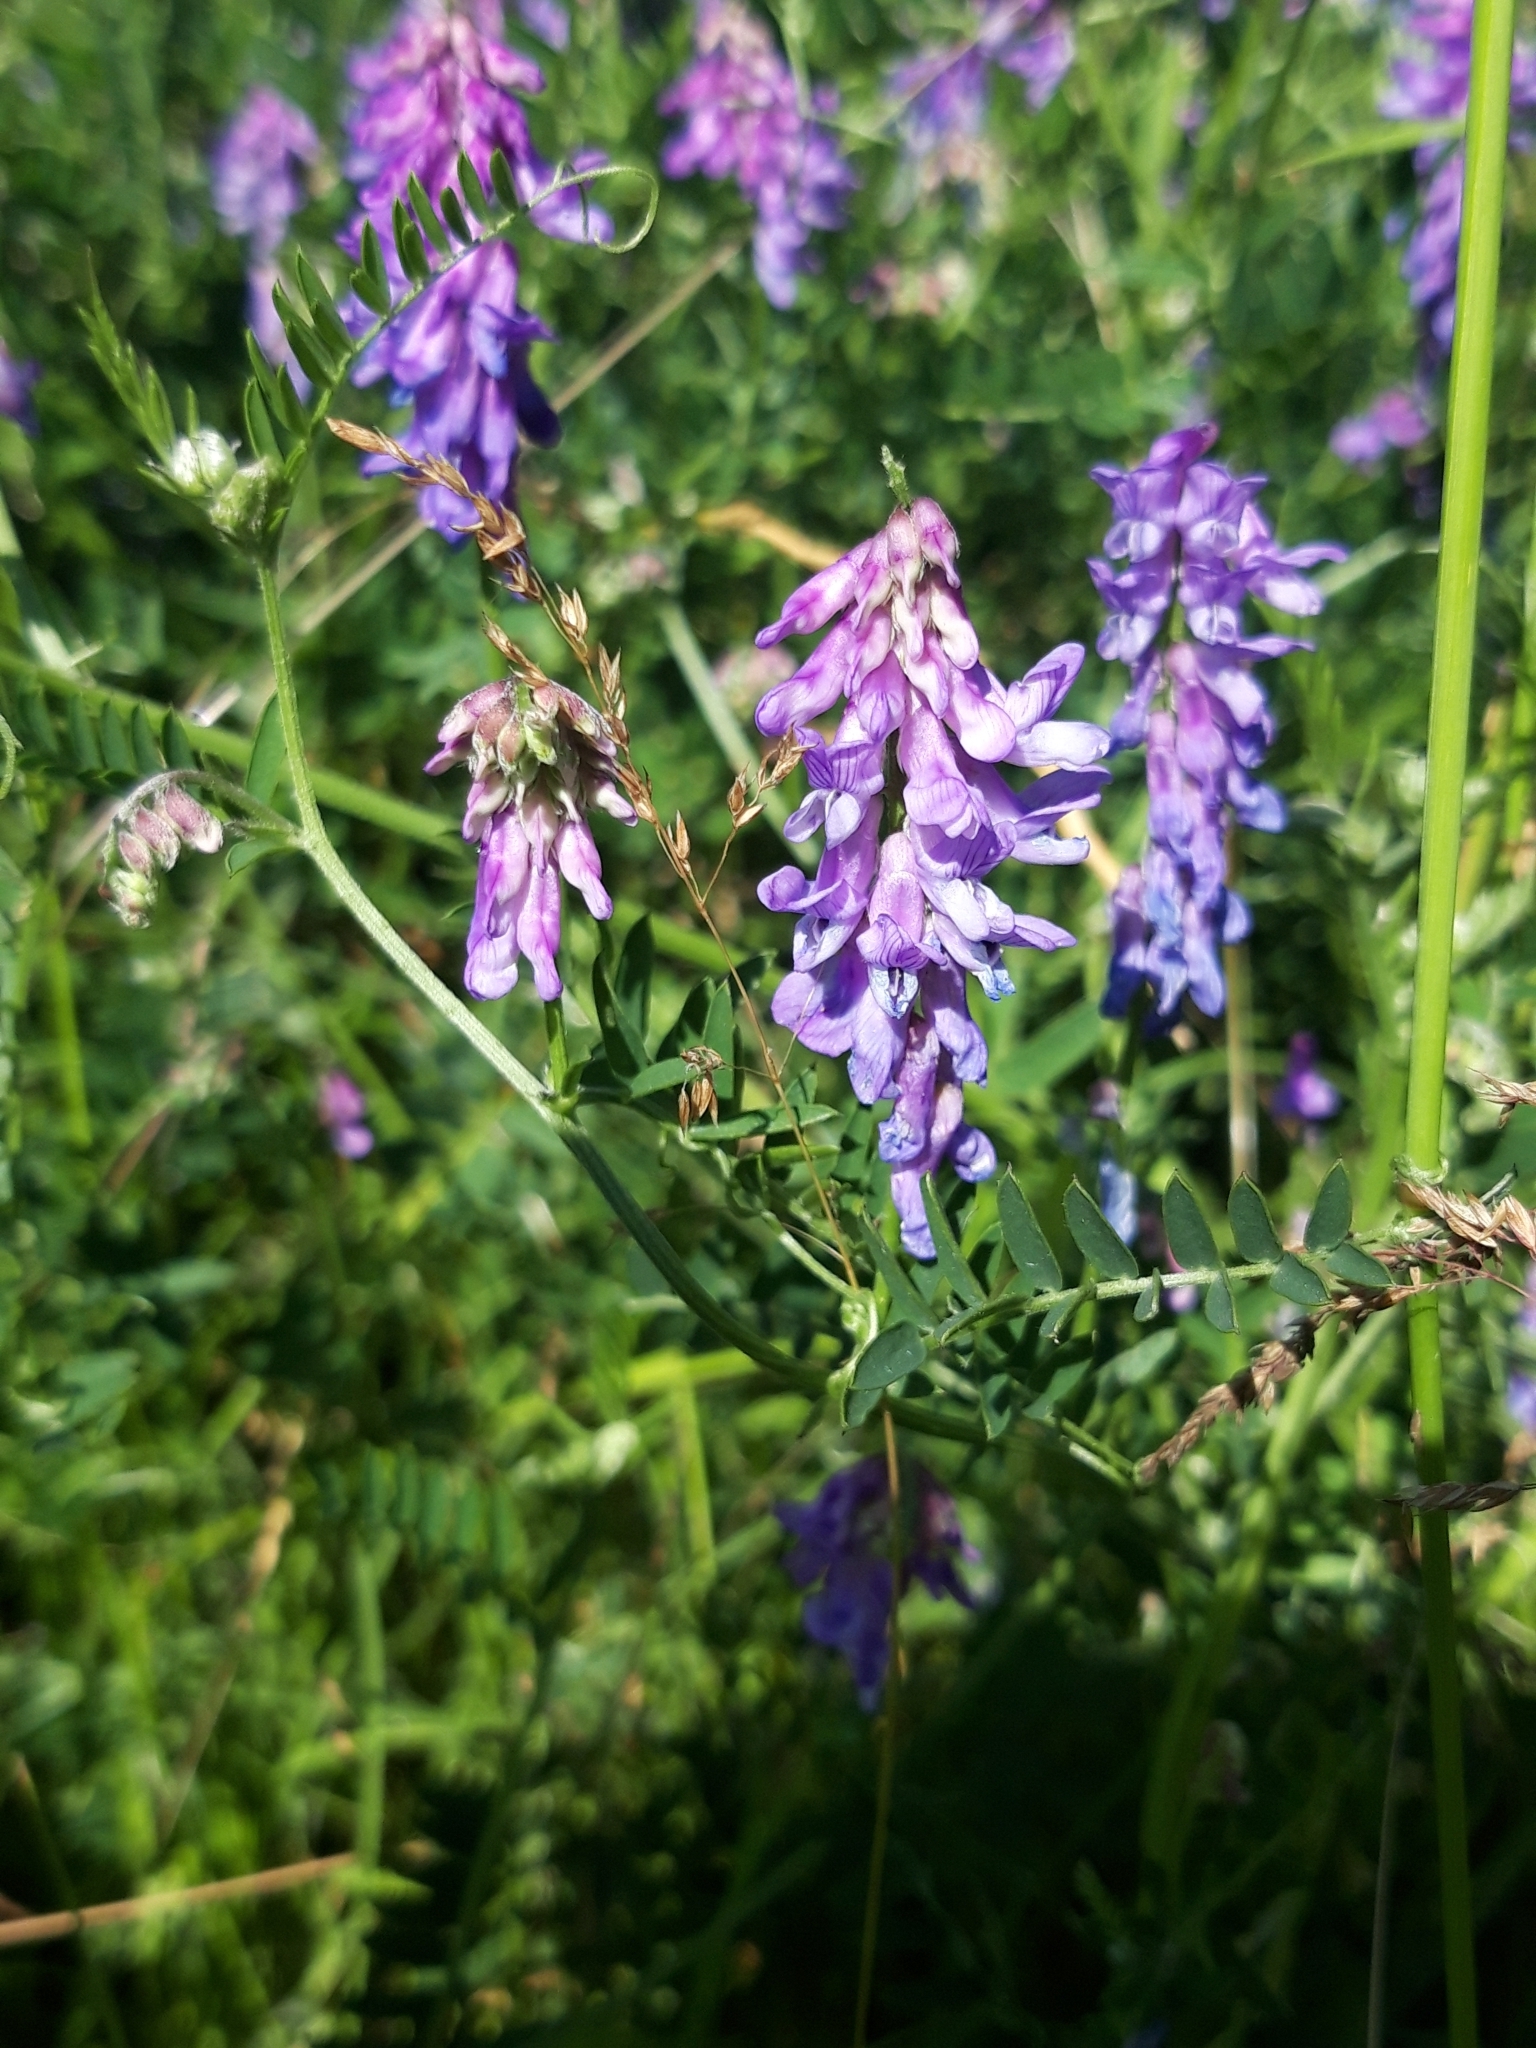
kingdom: Plantae
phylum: Tracheophyta
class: Magnoliopsida
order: Fabales
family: Fabaceae
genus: Vicia
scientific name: Vicia cracca
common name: Bird vetch
